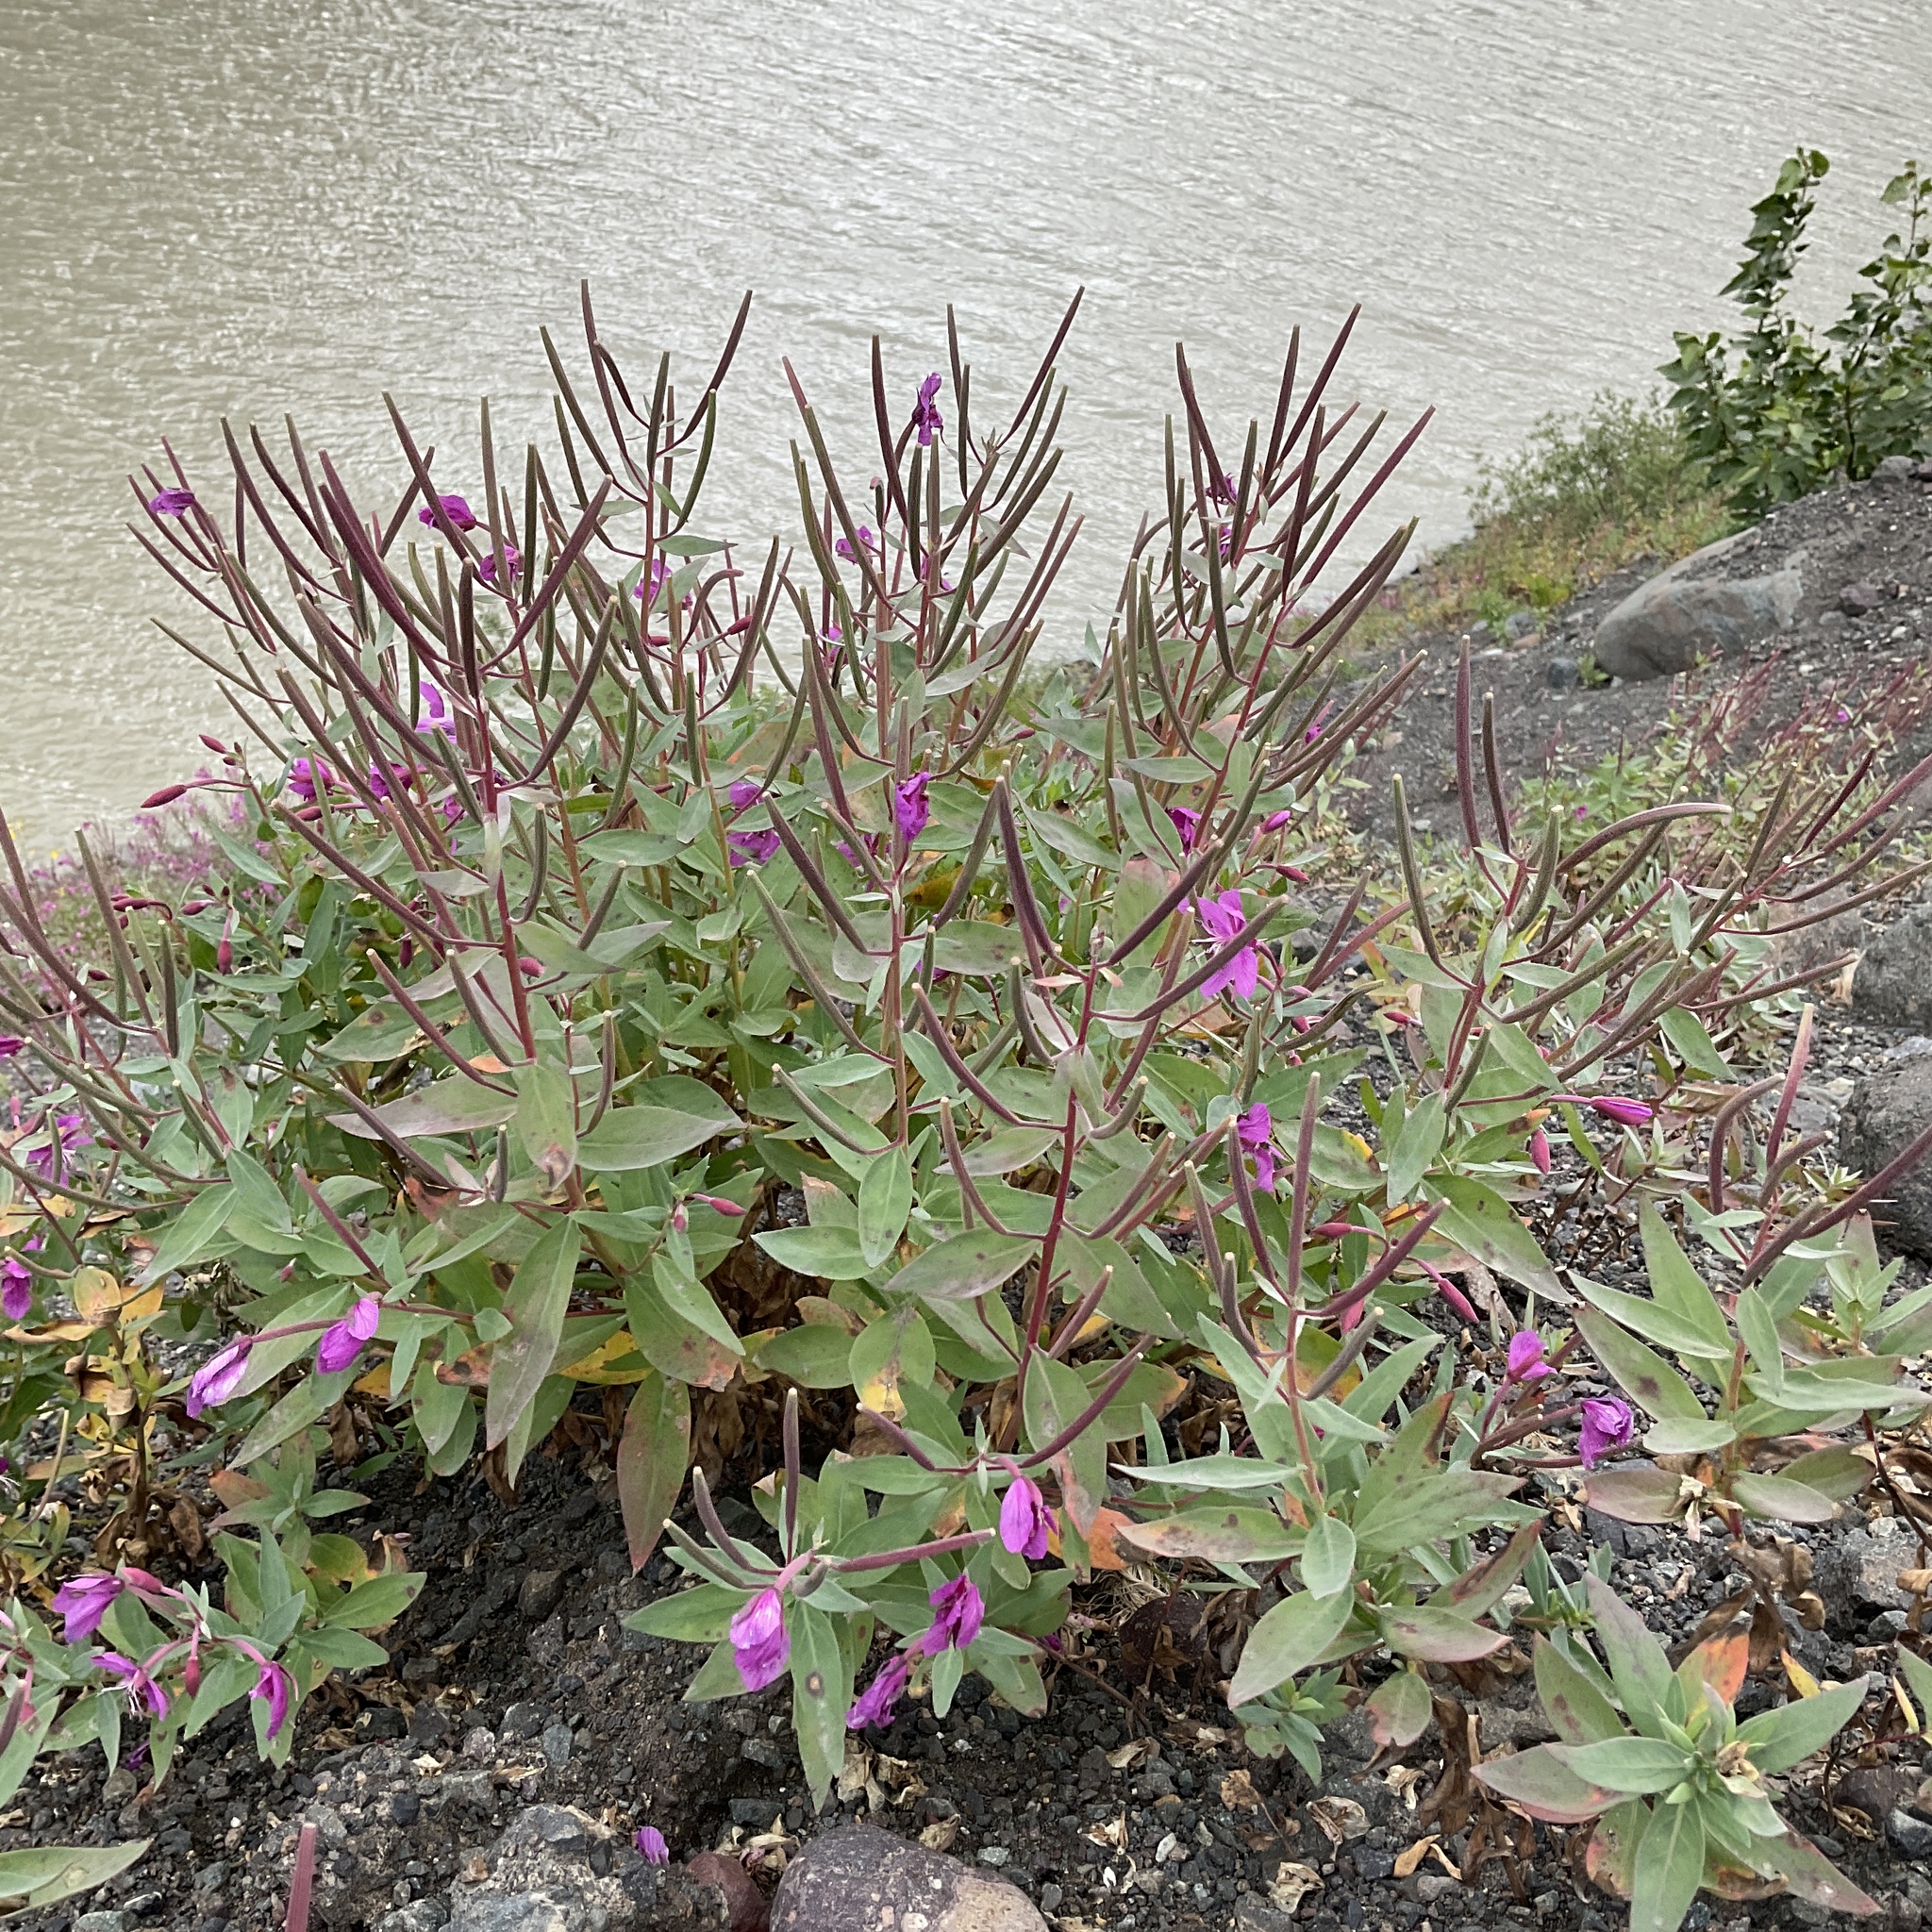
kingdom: Plantae
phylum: Tracheophyta
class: Magnoliopsida
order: Myrtales
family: Onagraceae
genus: Chamaenerion
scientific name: Chamaenerion latifolium
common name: Dwarf fireweed
